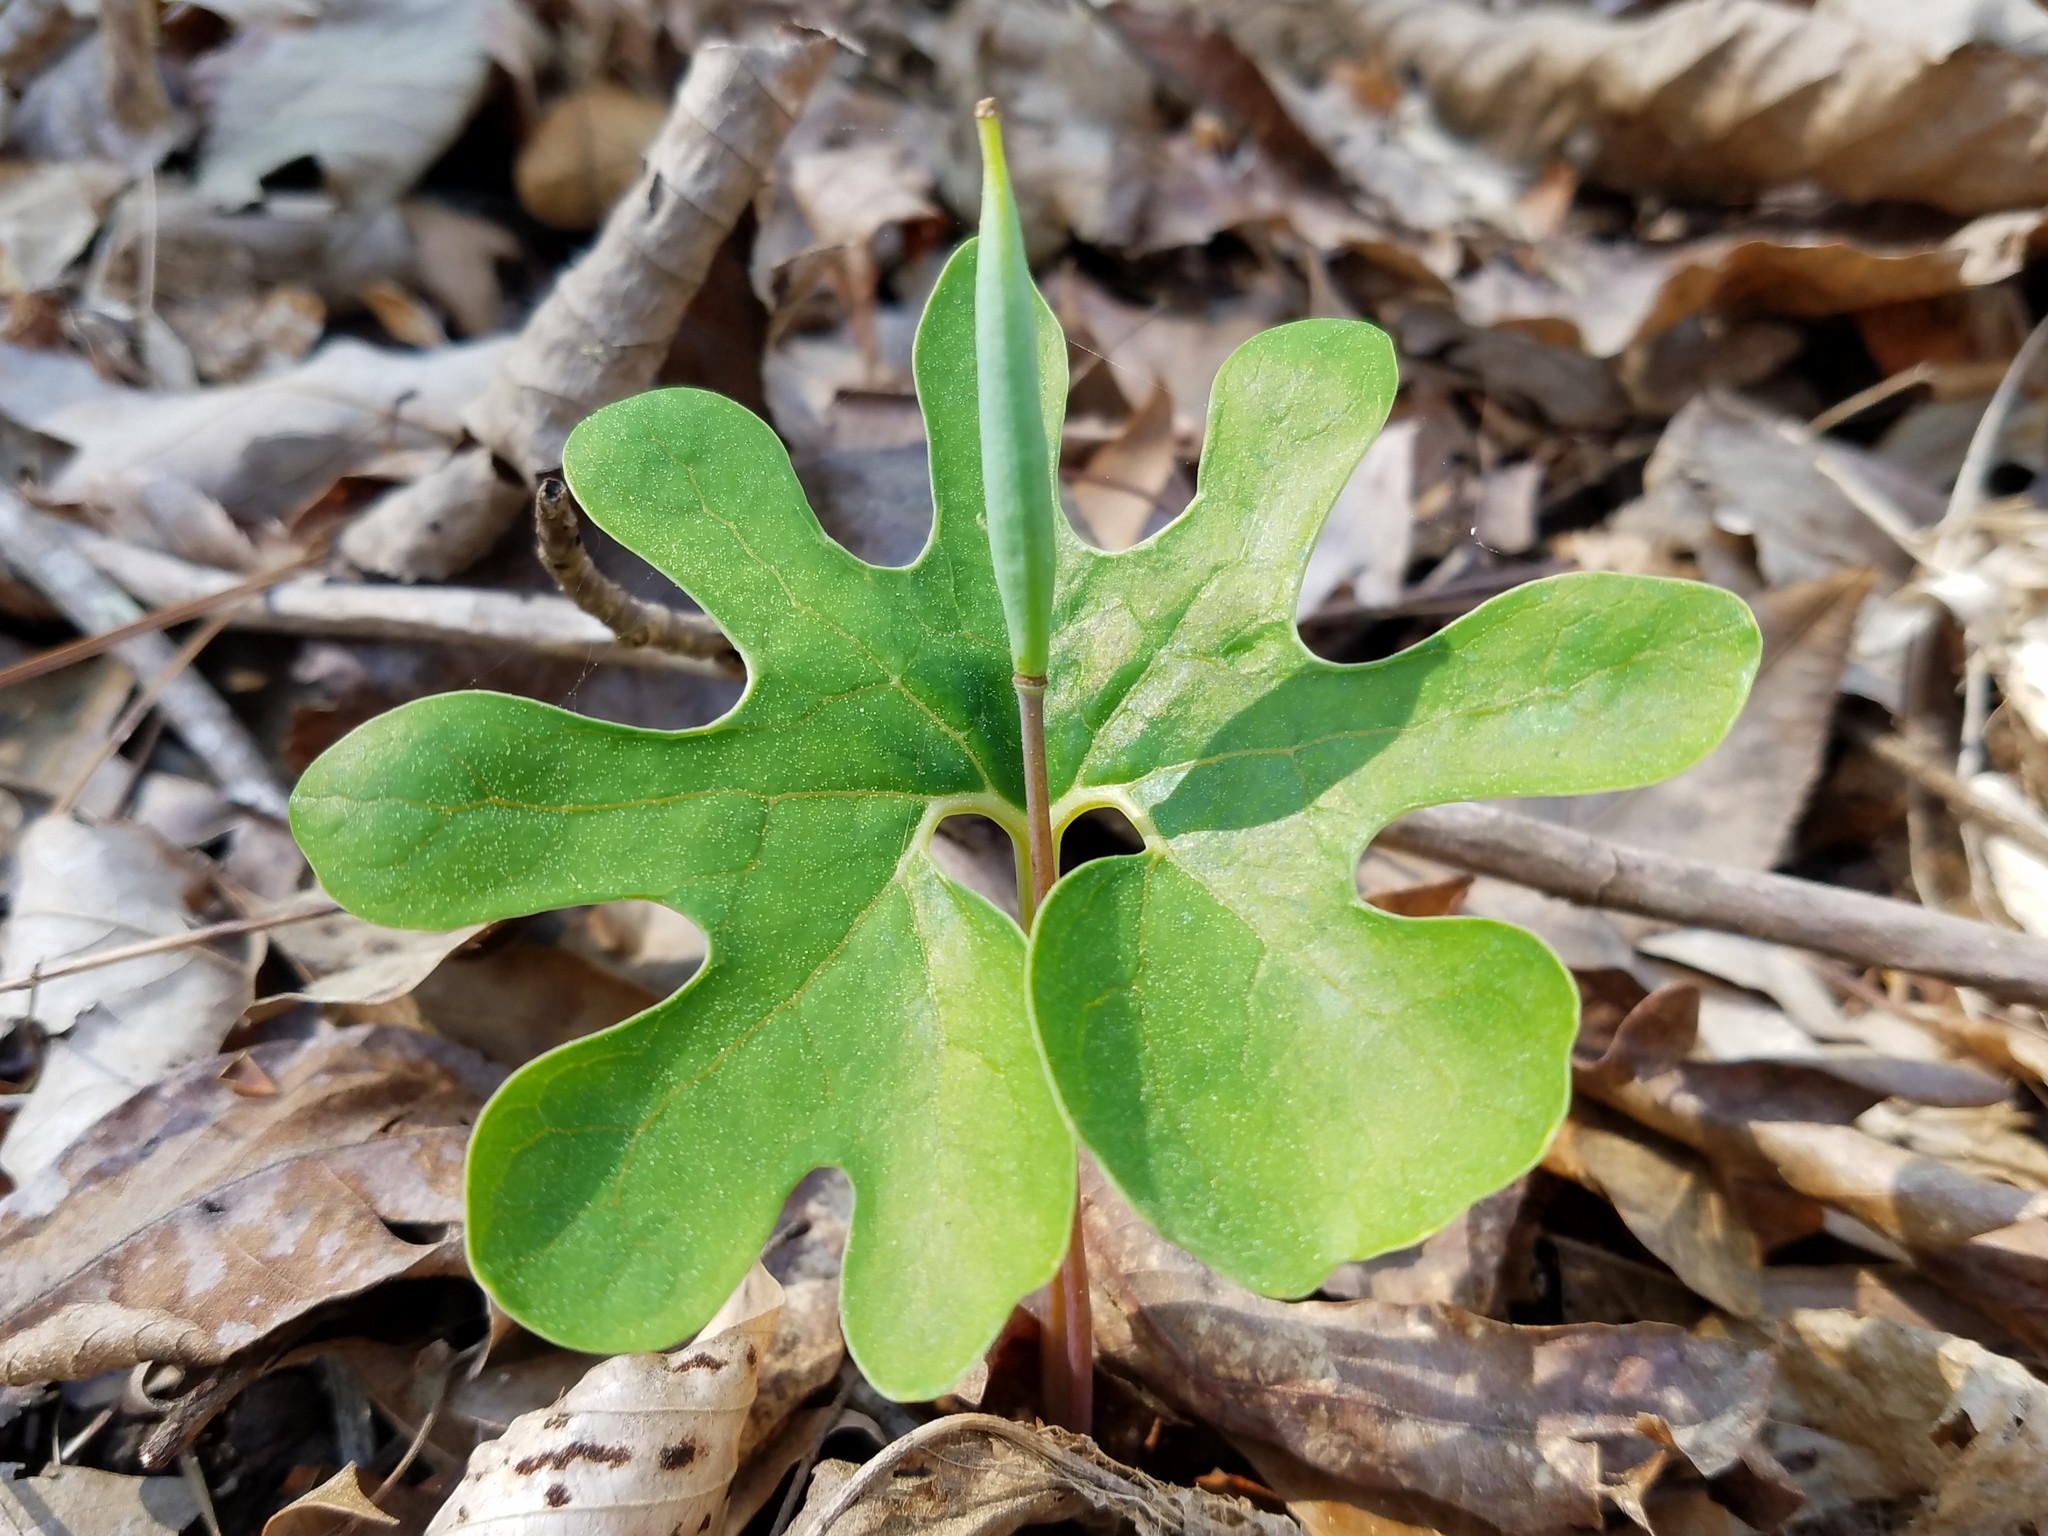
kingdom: Plantae
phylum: Tracheophyta
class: Magnoliopsida
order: Ranunculales
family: Papaveraceae
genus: Sanguinaria
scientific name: Sanguinaria canadensis
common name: Bloodroot
